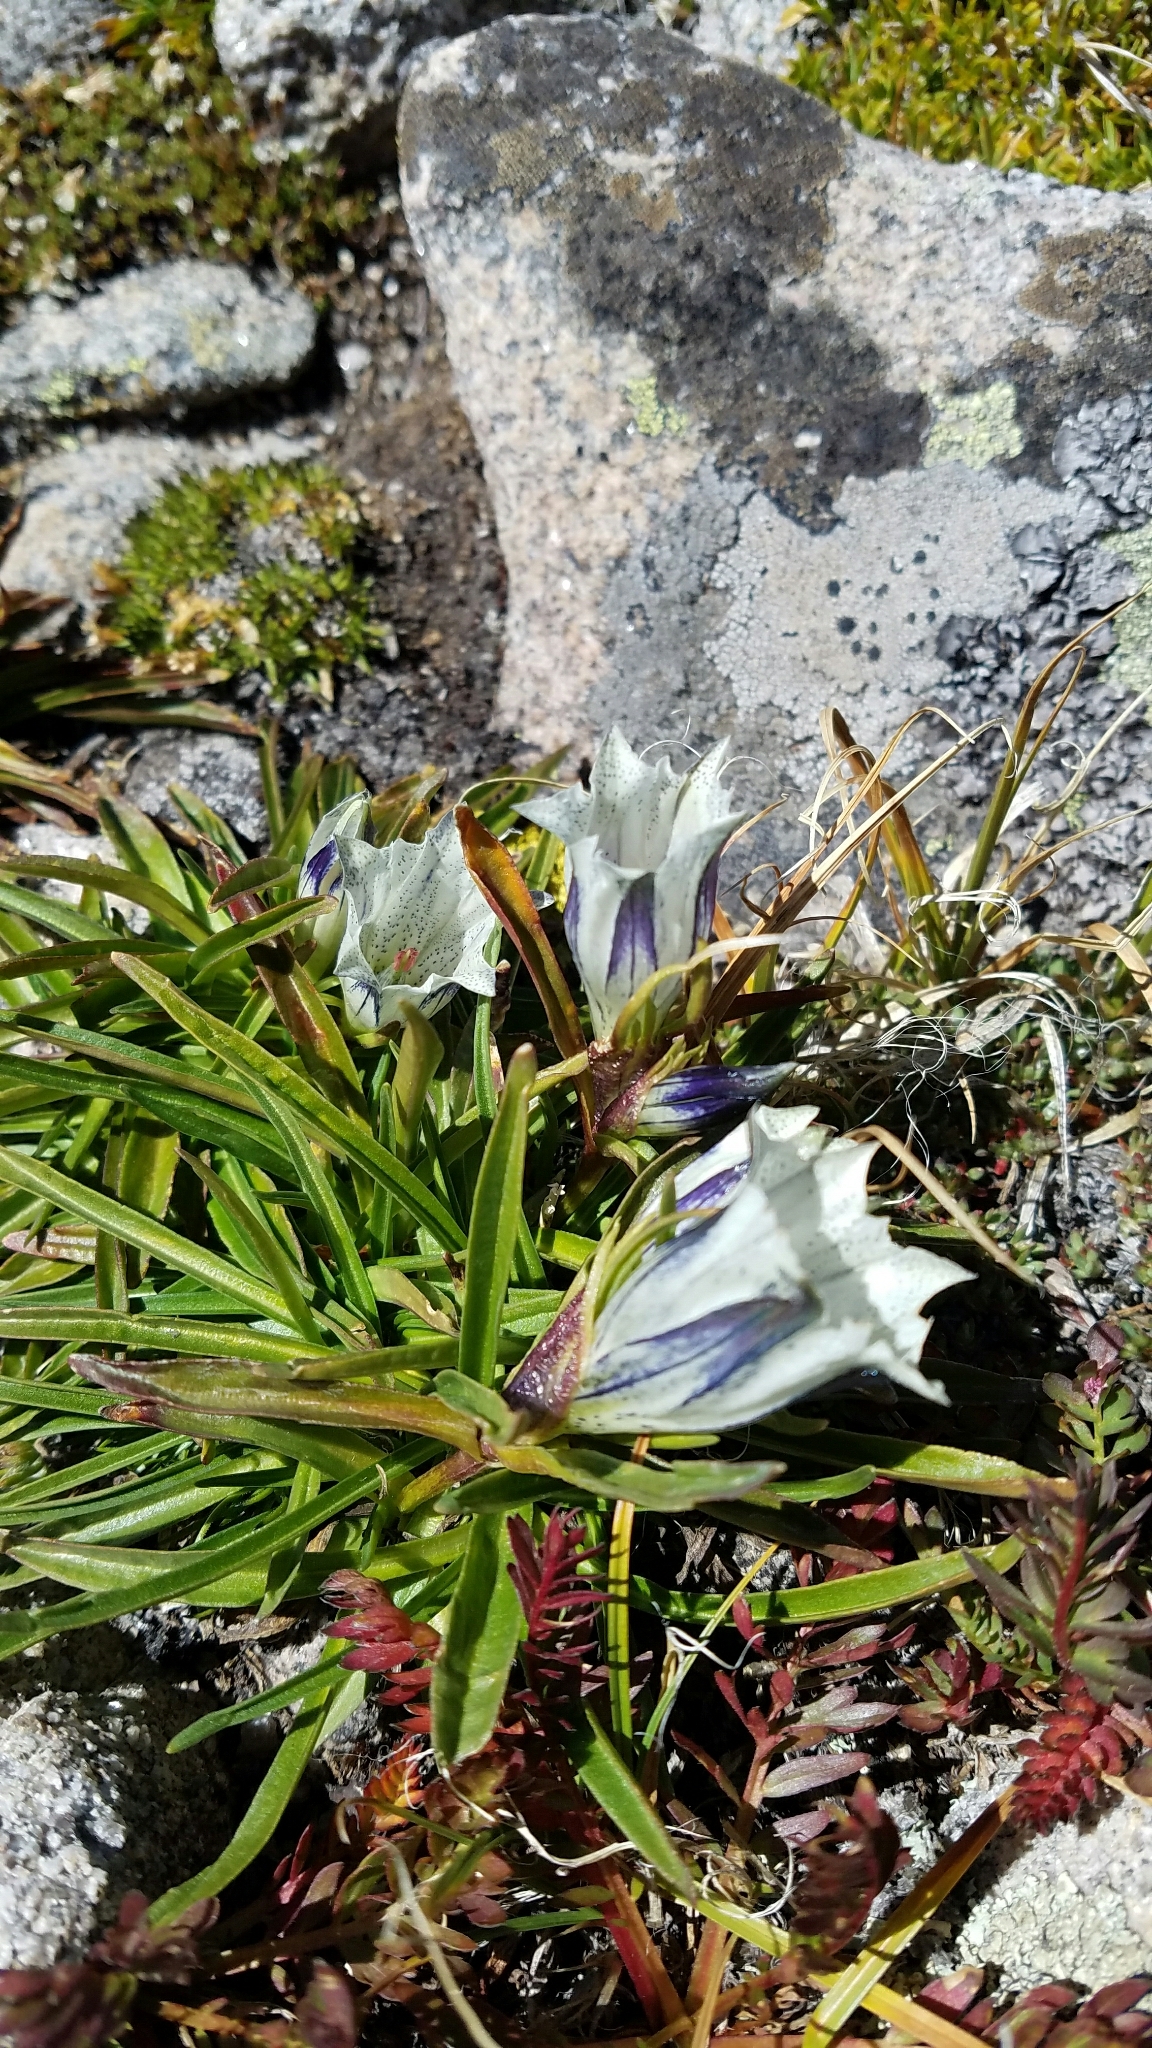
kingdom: Plantae
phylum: Tracheophyta
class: Magnoliopsida
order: Gentianales
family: Gentianaceae
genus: Gentiana
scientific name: Gentiana algida
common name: Arctic gentian
